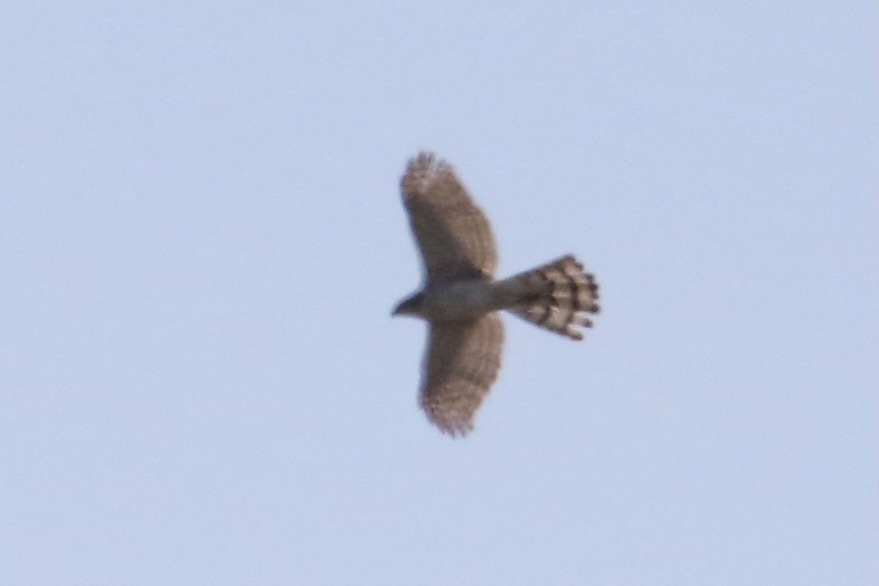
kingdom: Animalia
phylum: Chordata
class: Aves
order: Accipitriformes
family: Accipitridae
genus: Accipiter
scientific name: Accipiter cooperii
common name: Cooper's hawk
